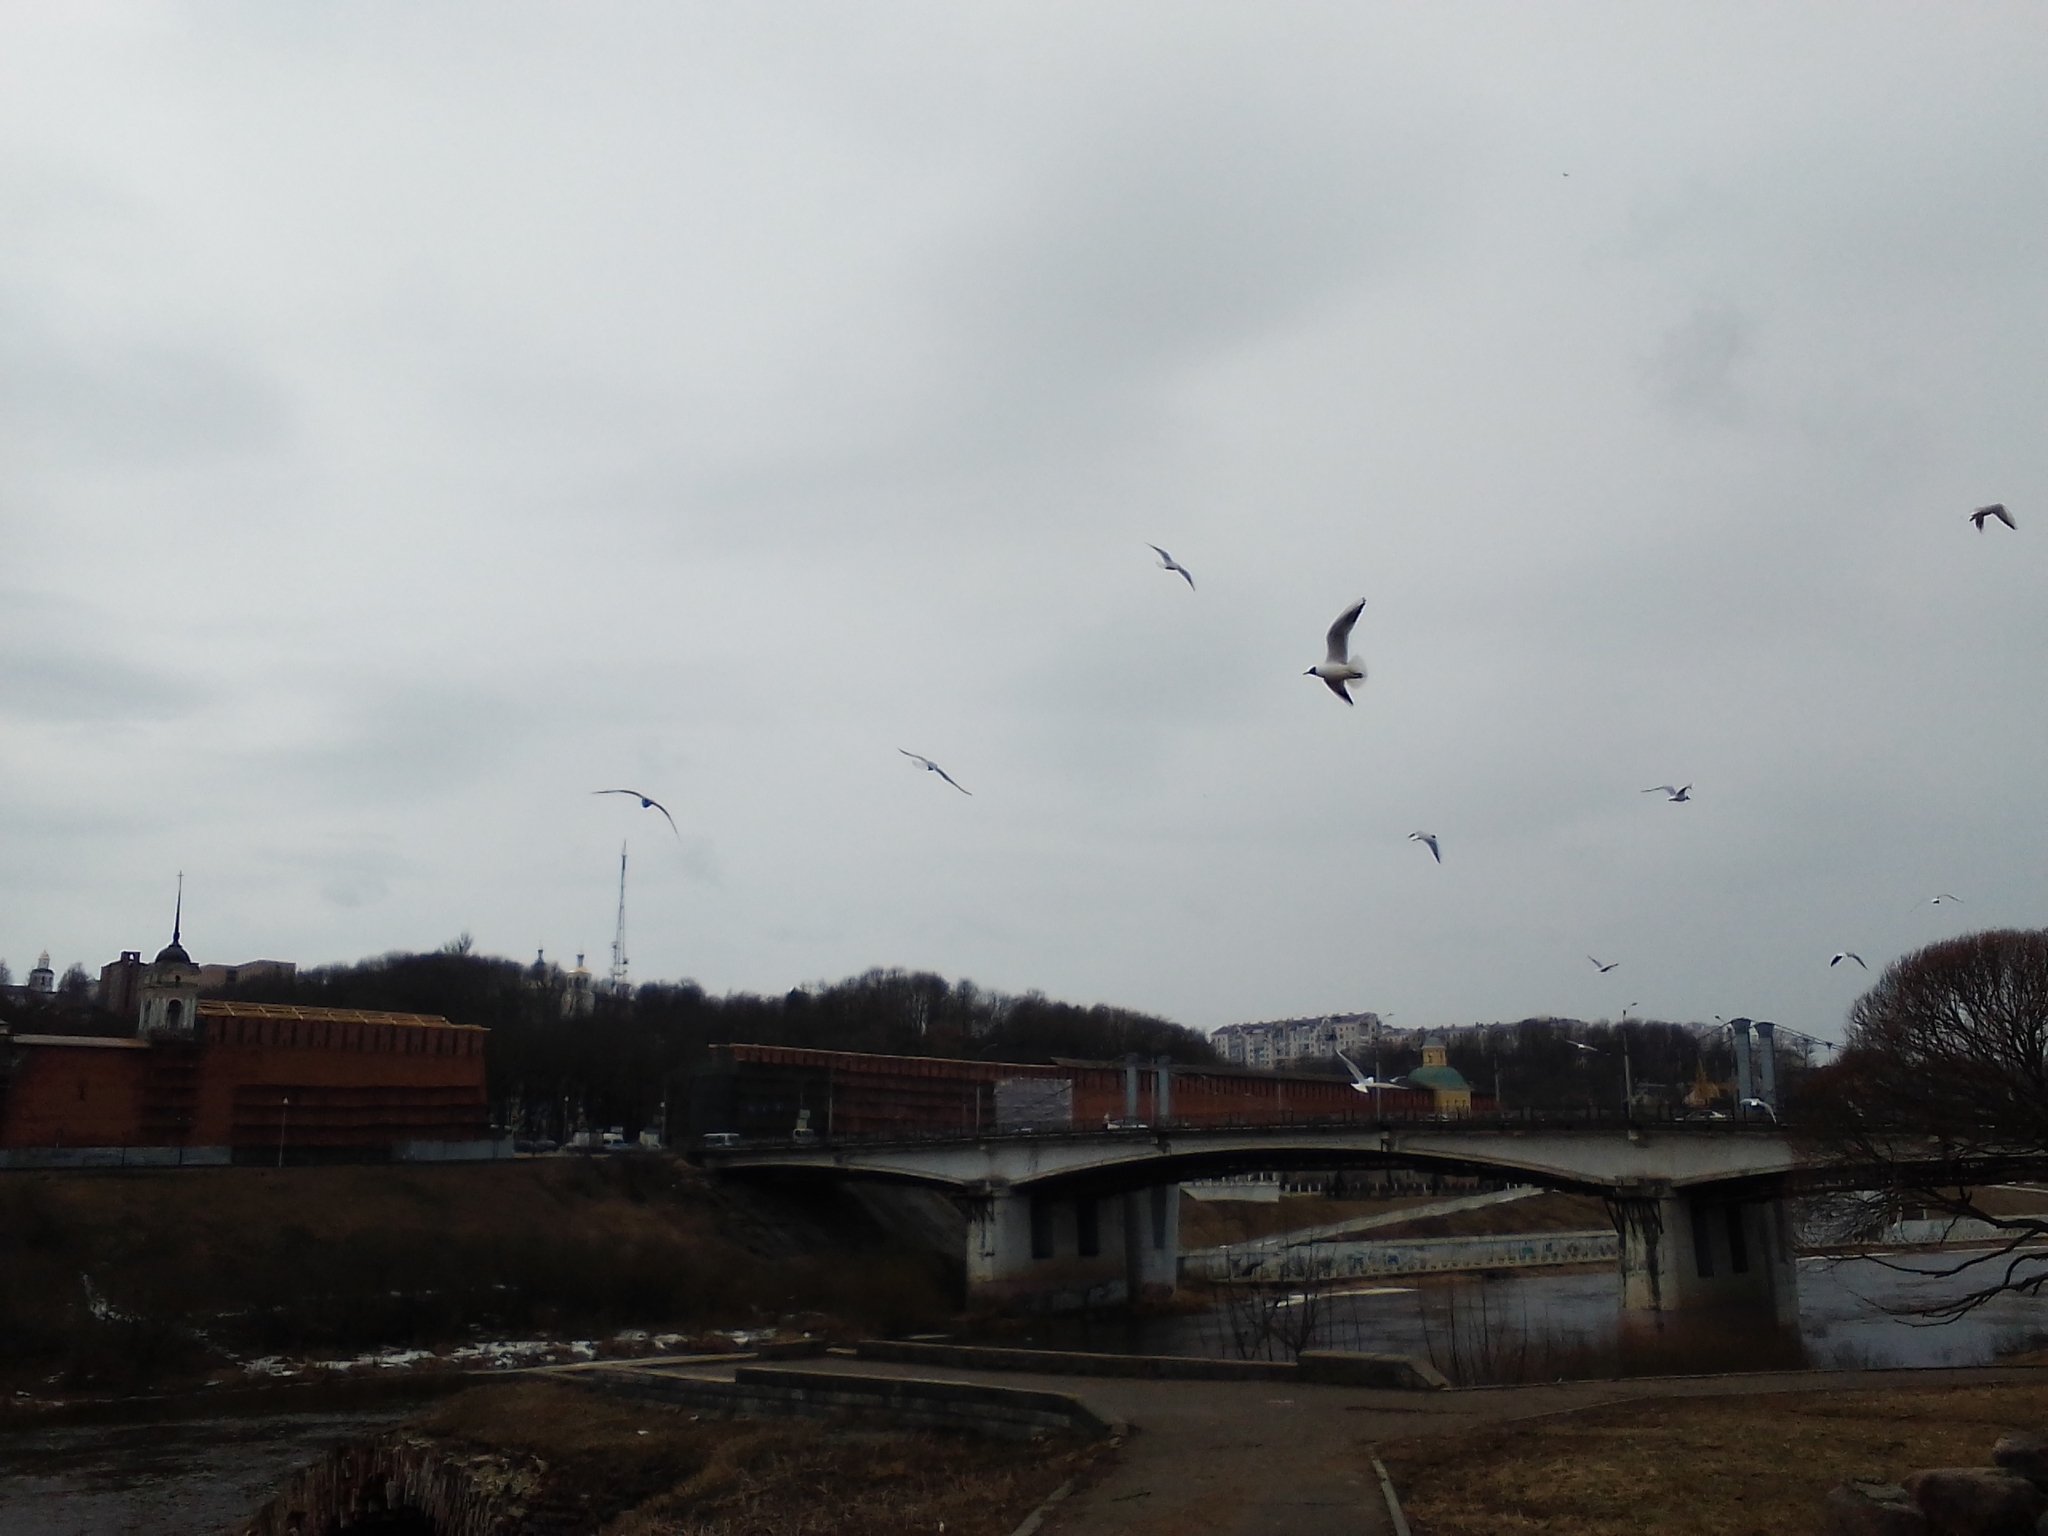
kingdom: Animalia
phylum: Chordata
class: Aves
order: Charadriiformes
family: Laridae
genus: Chroicocephalus
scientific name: Chroicocephalus ridibundus
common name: Black-headed gull
